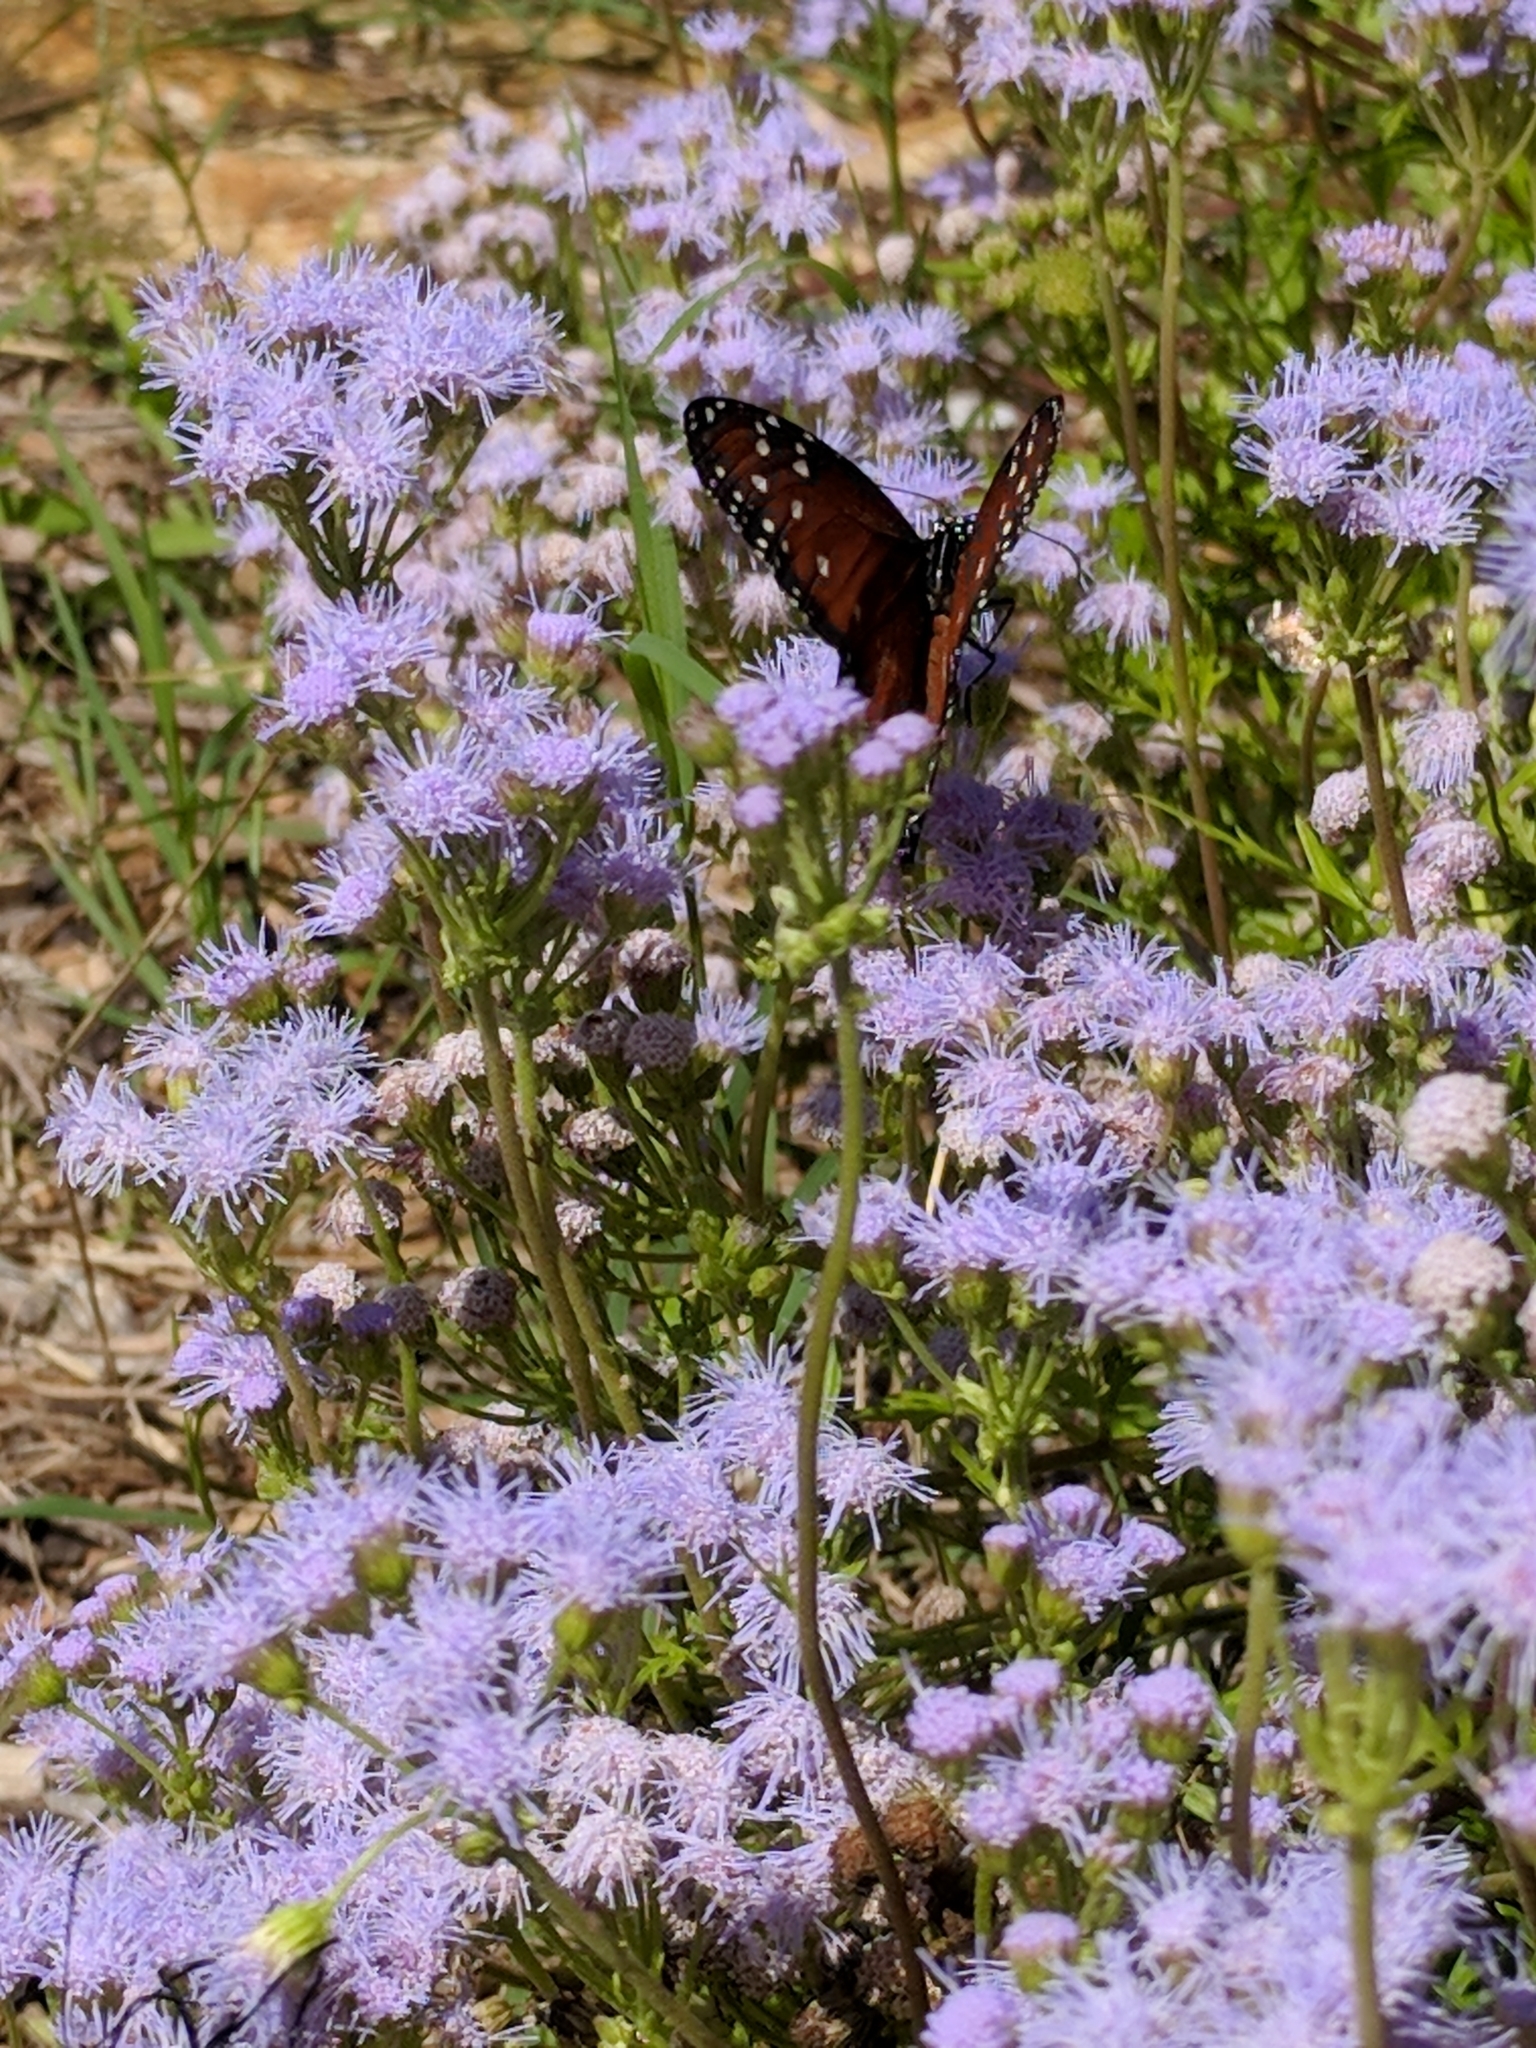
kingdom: Animalia
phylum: Arthropoda
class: Insecta
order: Lepidoptera
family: Nymphalidae
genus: Danaus
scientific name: Danaus gilippus
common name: Queen
